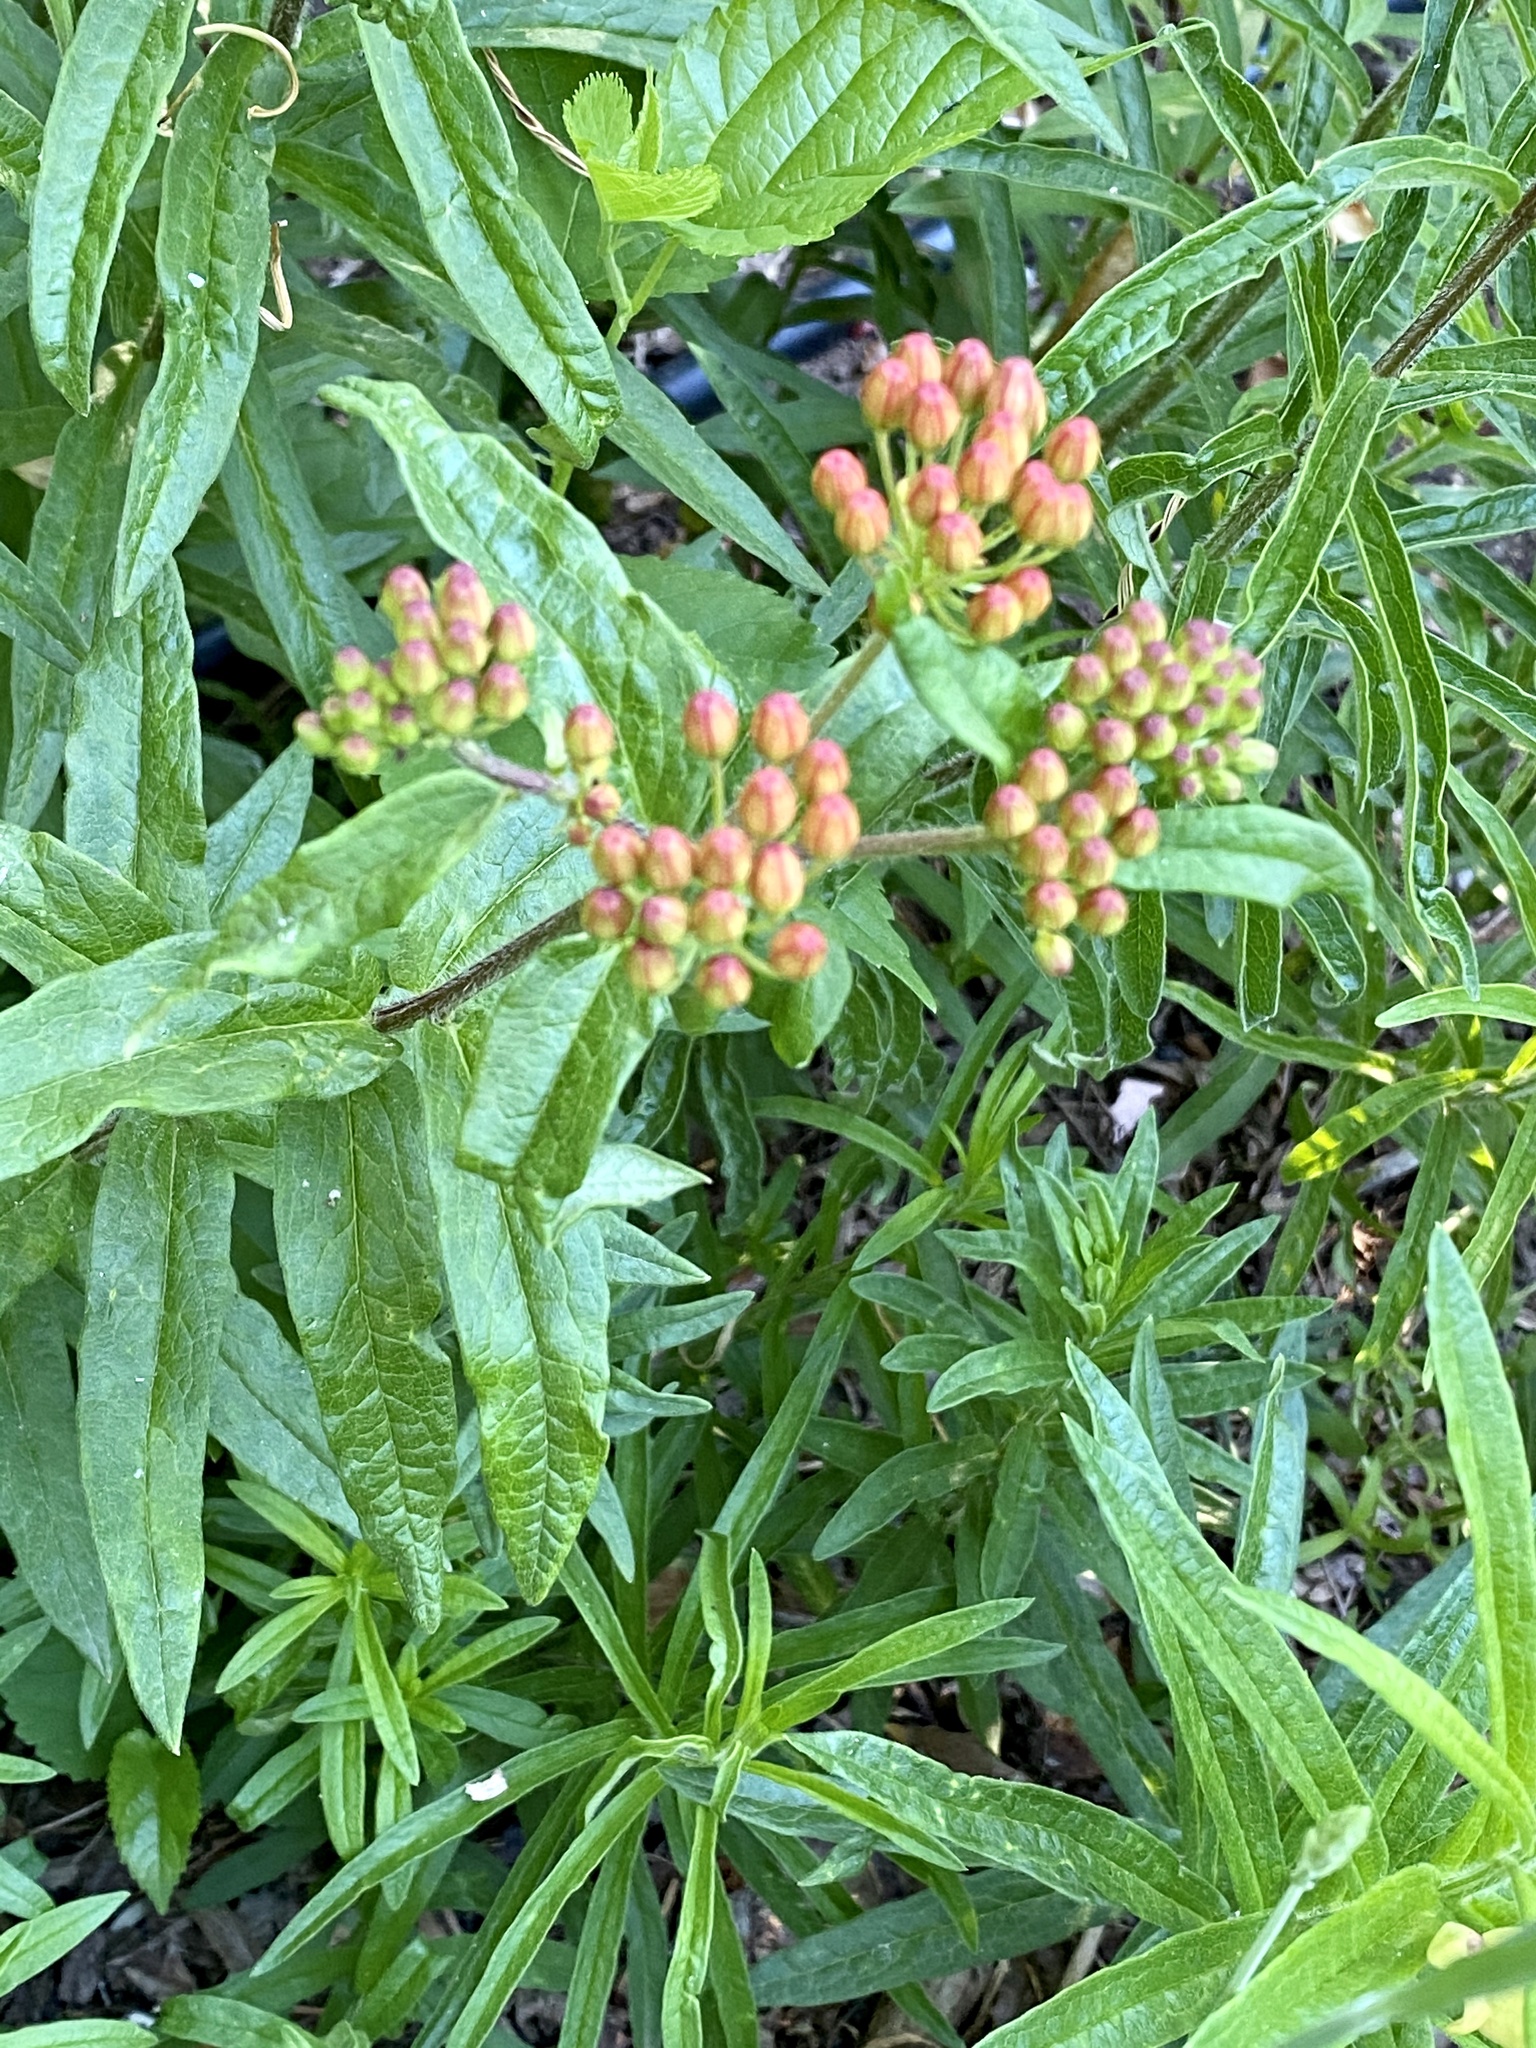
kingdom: Plantae
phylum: Tracheophyta
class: Magnoliopsida
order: Gentianales
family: Apocynaceae
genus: Asclepias
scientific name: Asclepias tuberosa
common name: Butterfly milkweed
